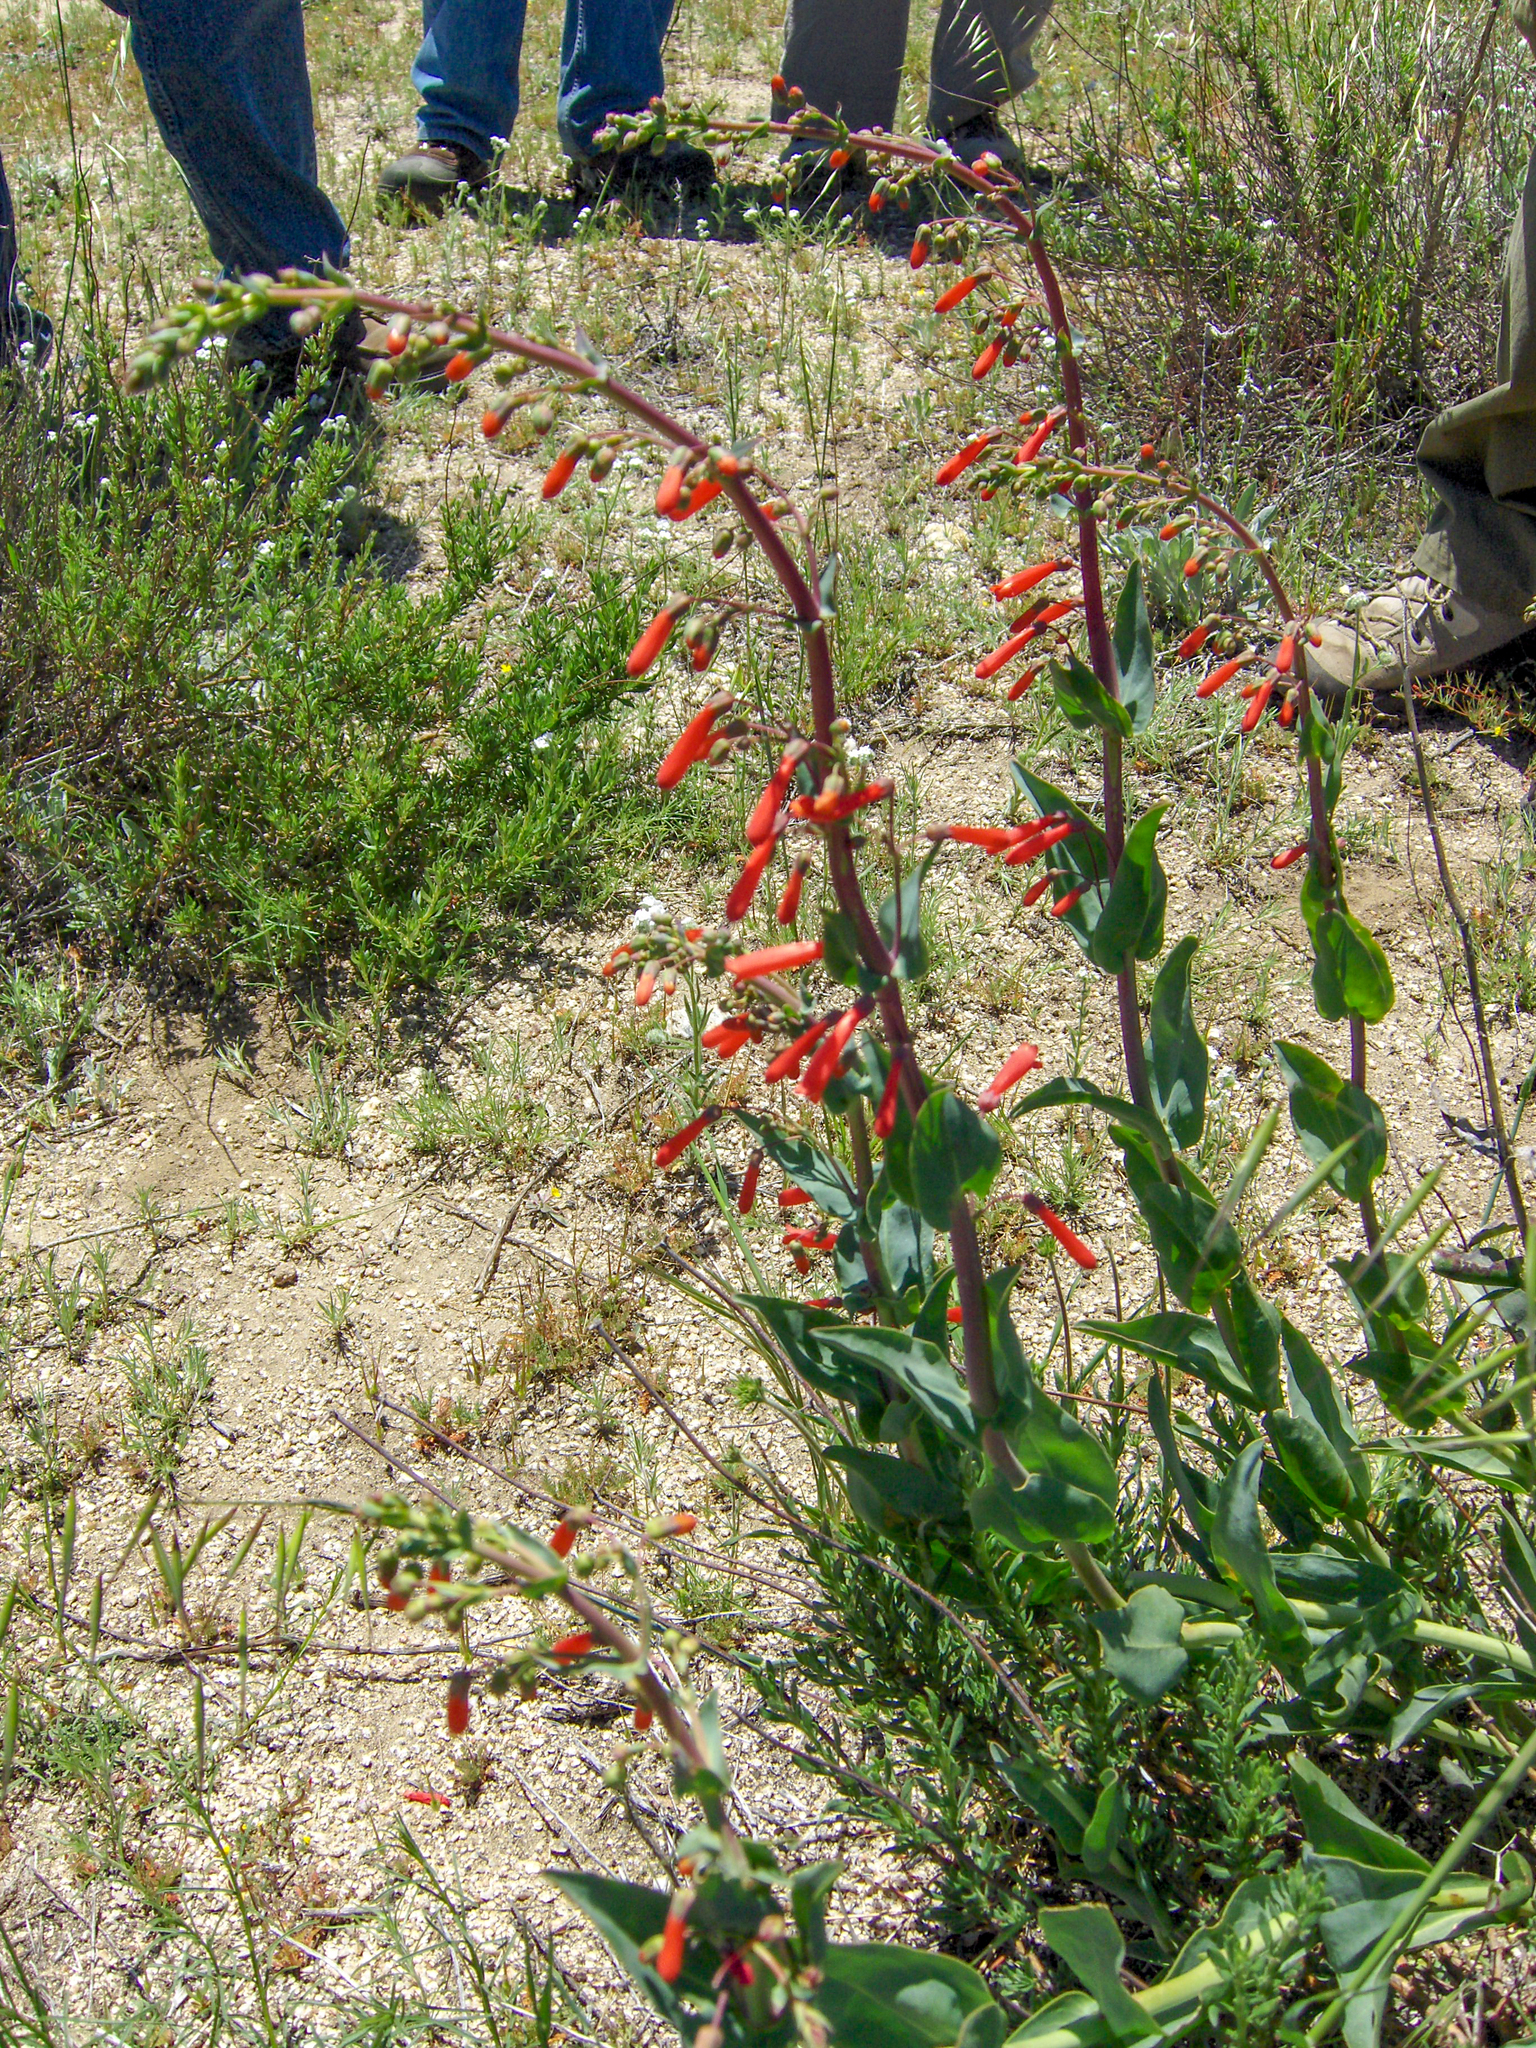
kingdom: Plantae
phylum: Tracheophyta
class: Magnoliopsida
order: Lamiales
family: Plantaginaceae
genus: Penstemon
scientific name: Penstemon centranthifolius
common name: Scarlet bugler
